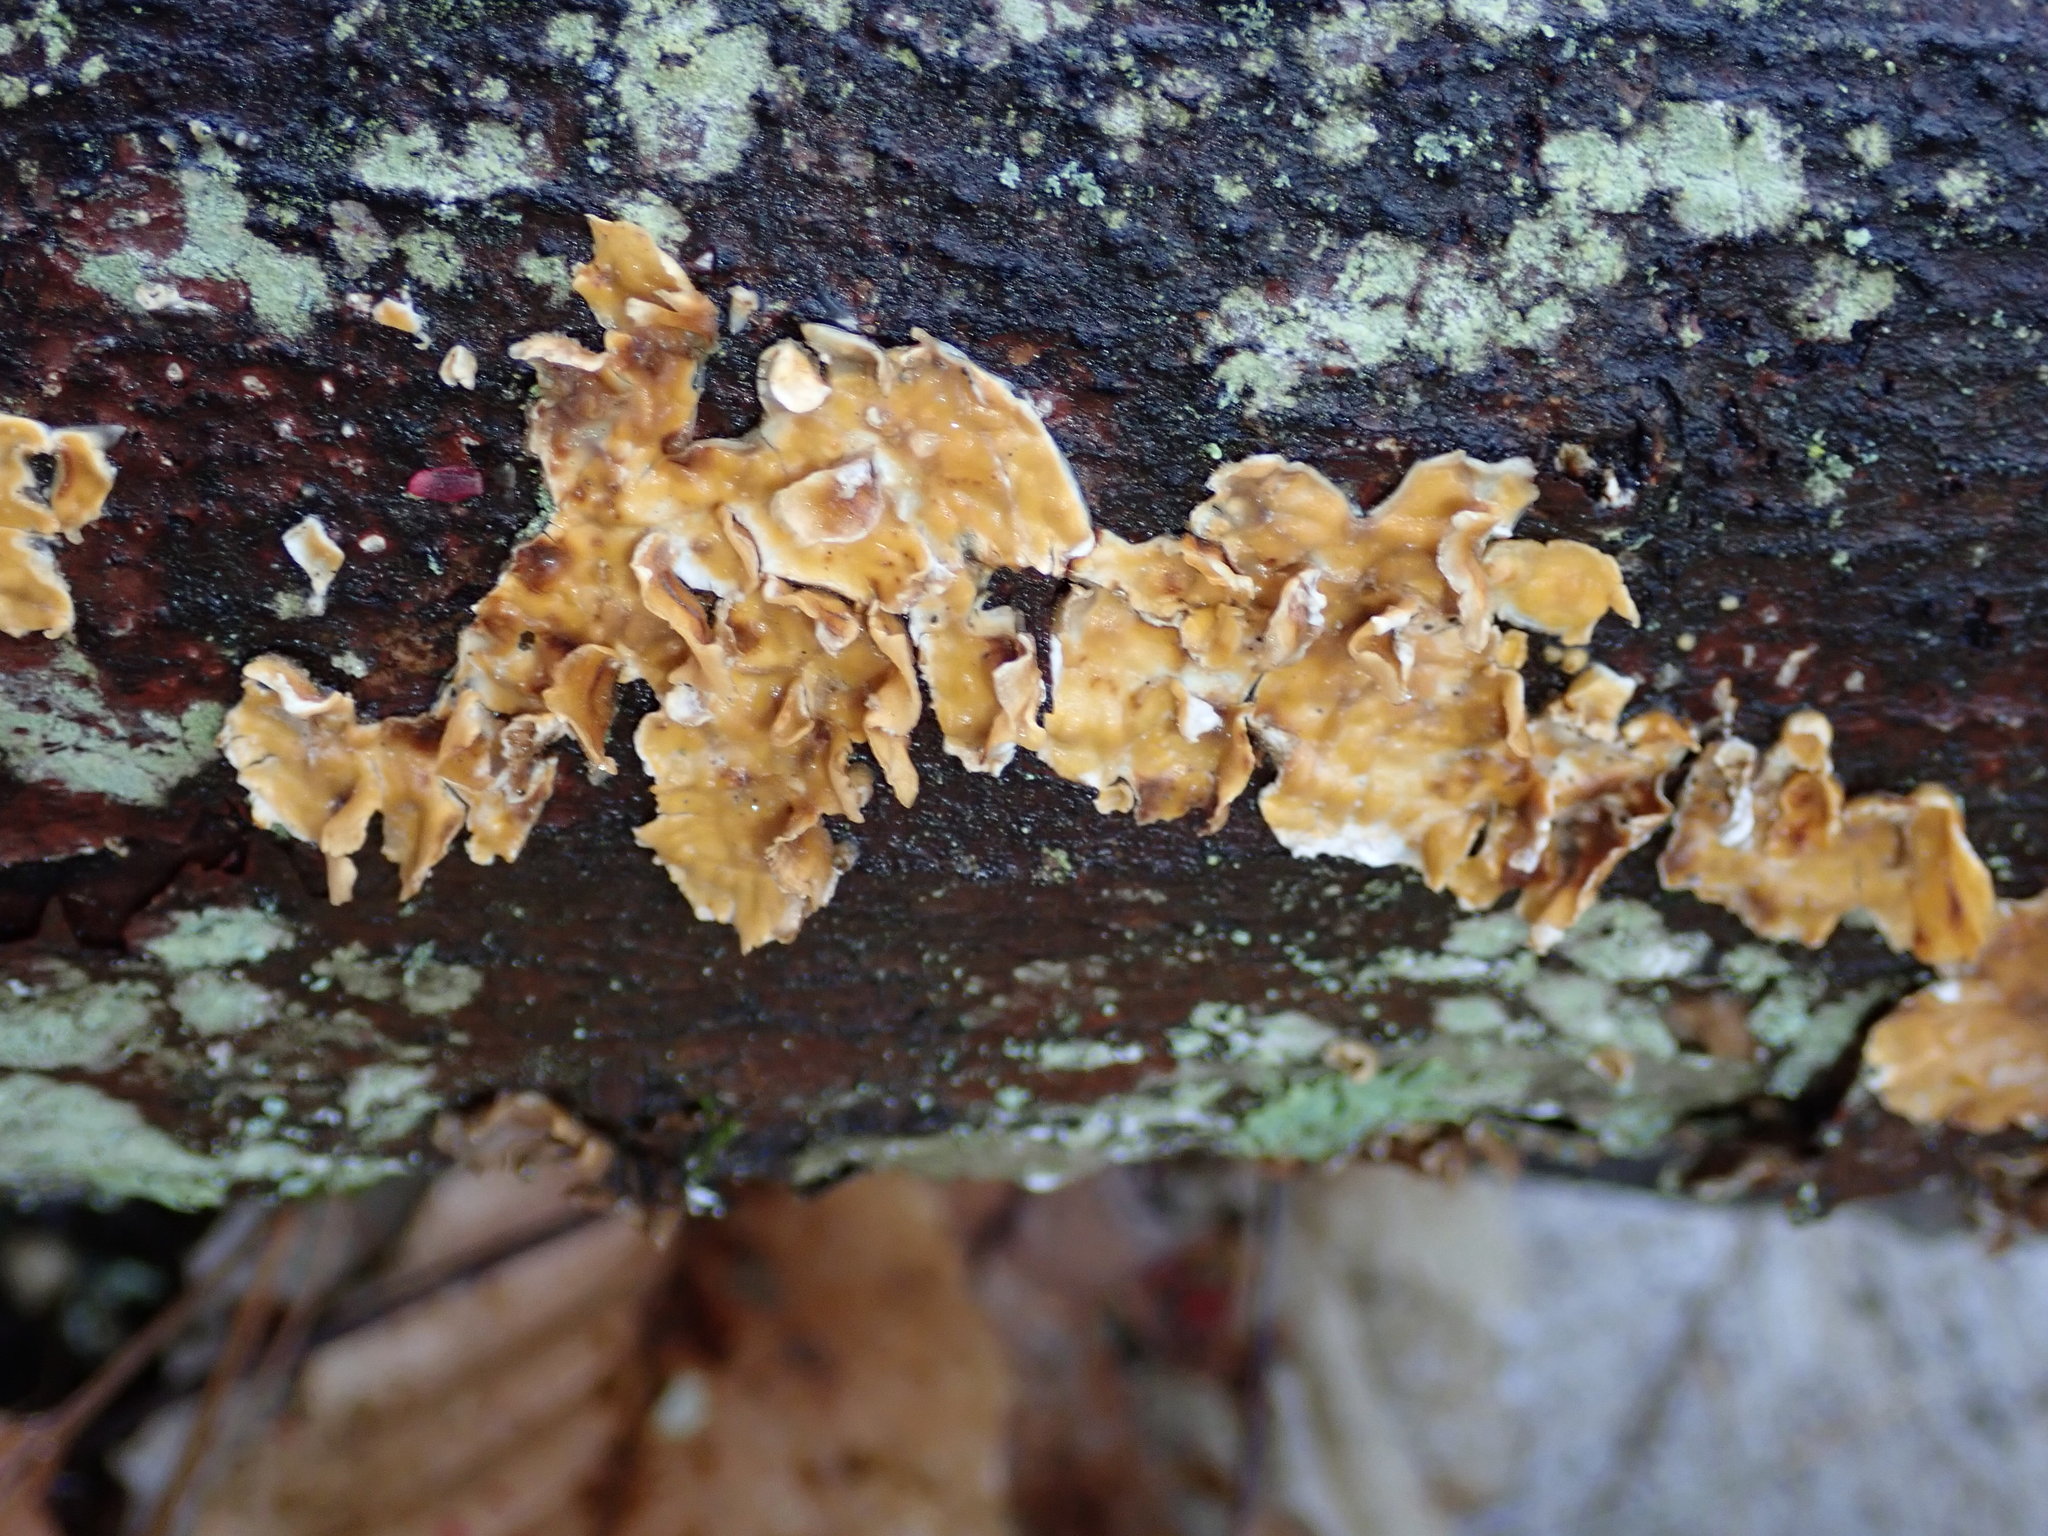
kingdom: Fungi
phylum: Basidiomycota
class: Agaricomycetes
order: Russulales
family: Stereaceae
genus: Stereum
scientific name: Stereum complicatum
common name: Crowded parchment
